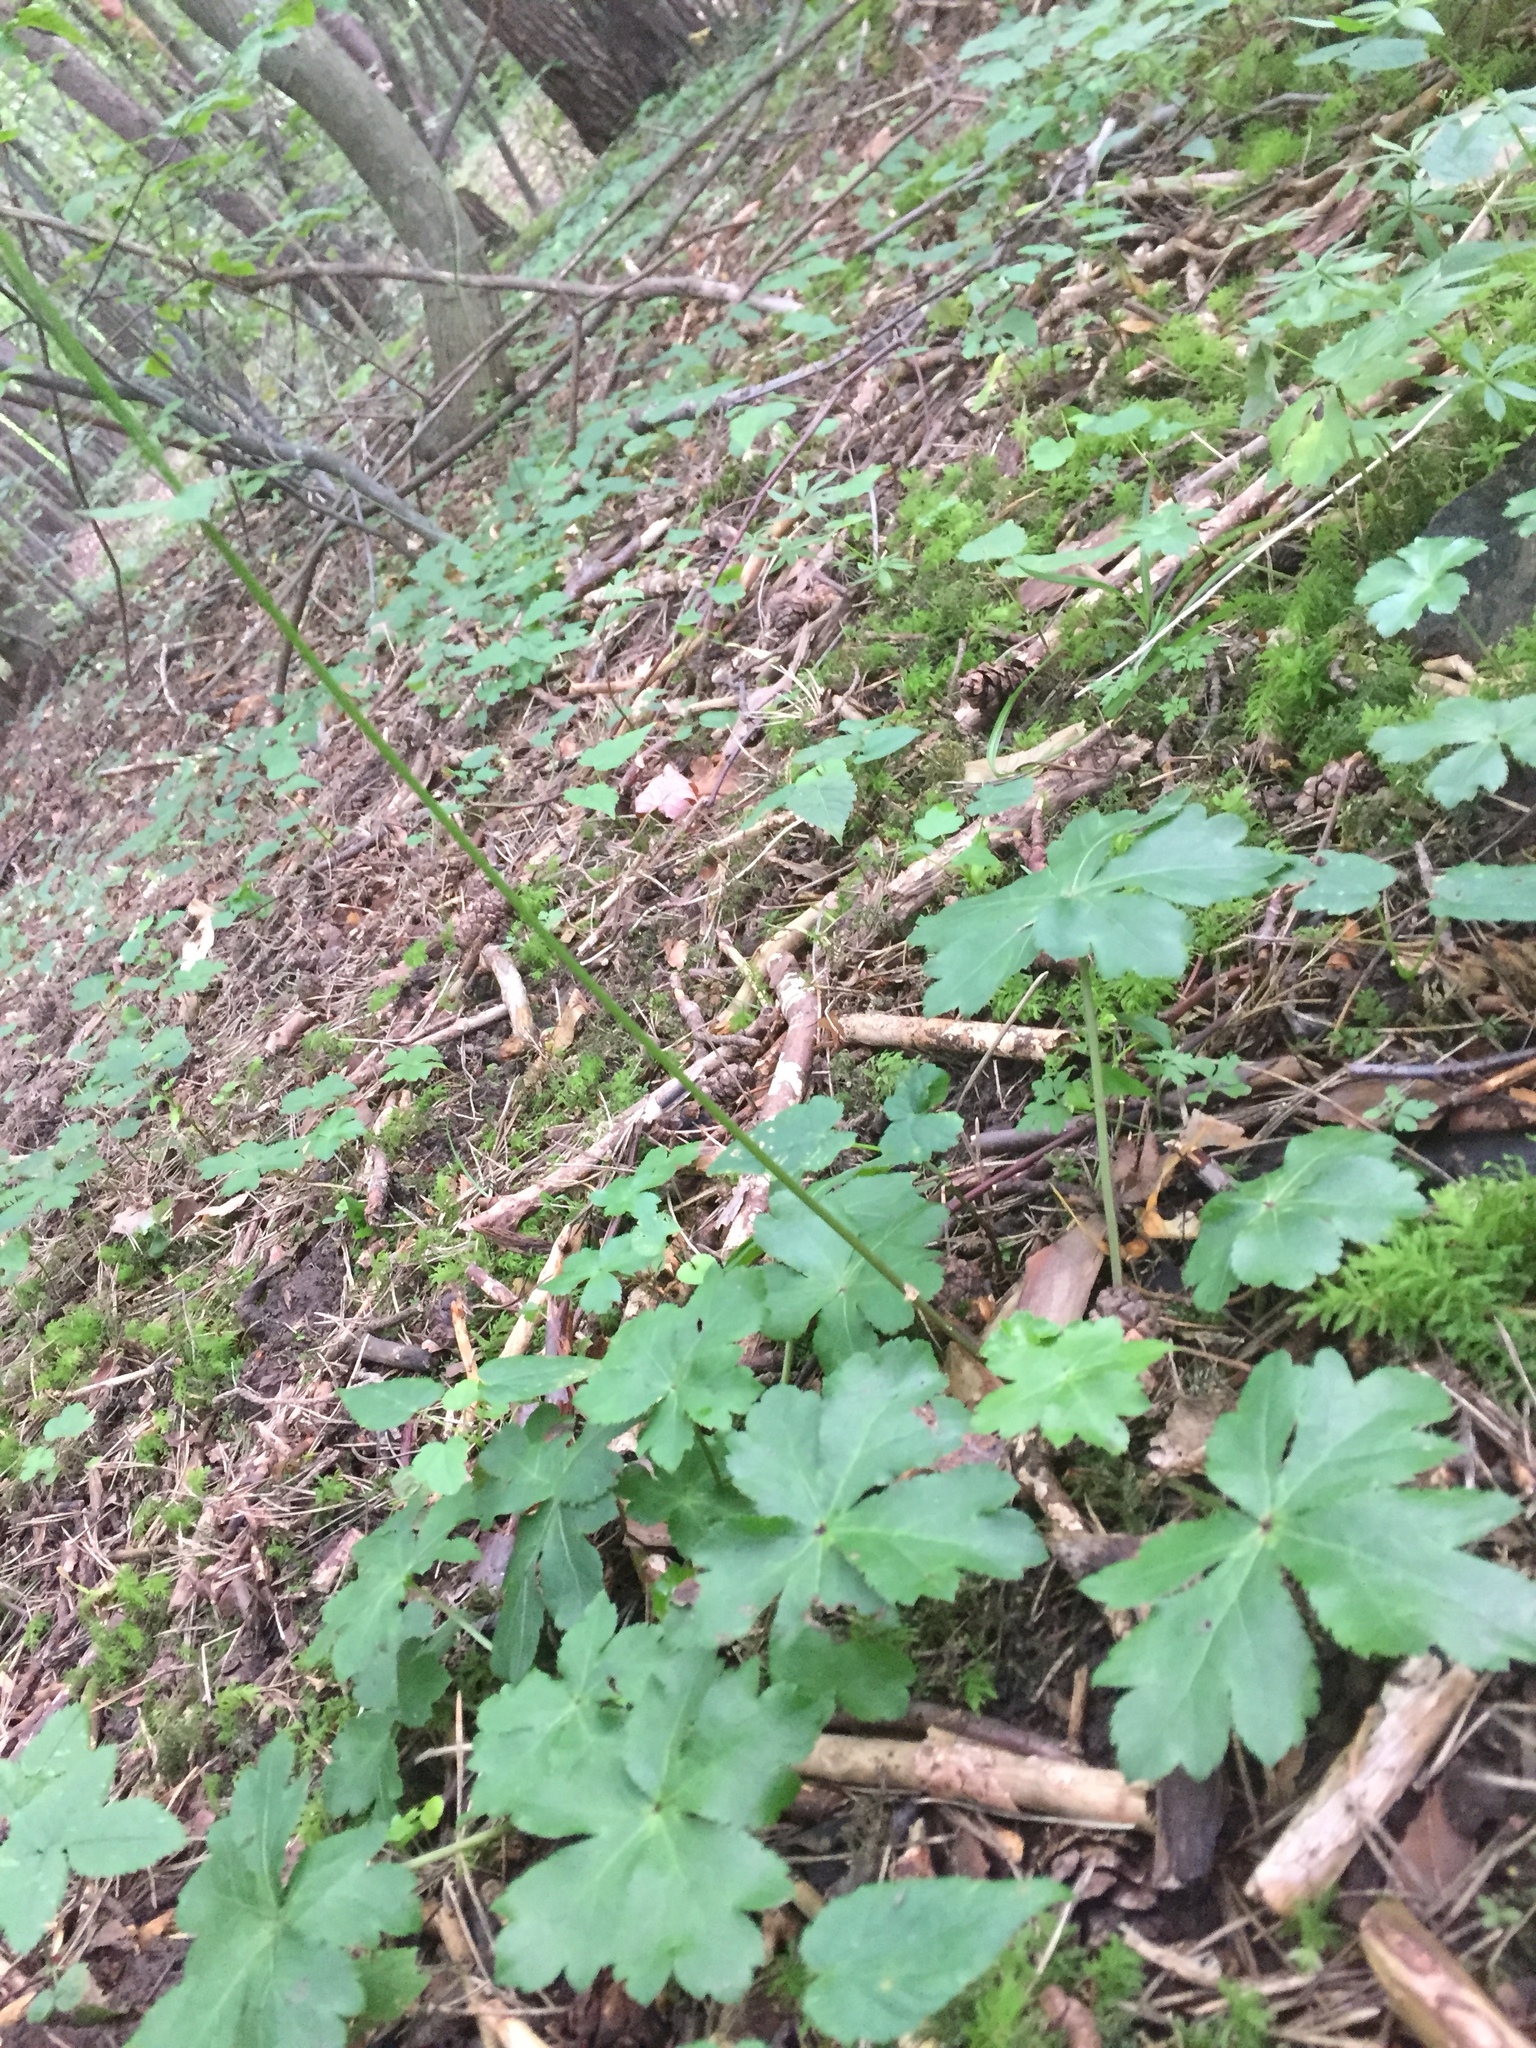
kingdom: Plantae
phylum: Tracheophyta
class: Magnoliopsida
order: Apiales
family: Apiaceae
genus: Sanicula
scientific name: Sanicula europaea
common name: Sanicle
